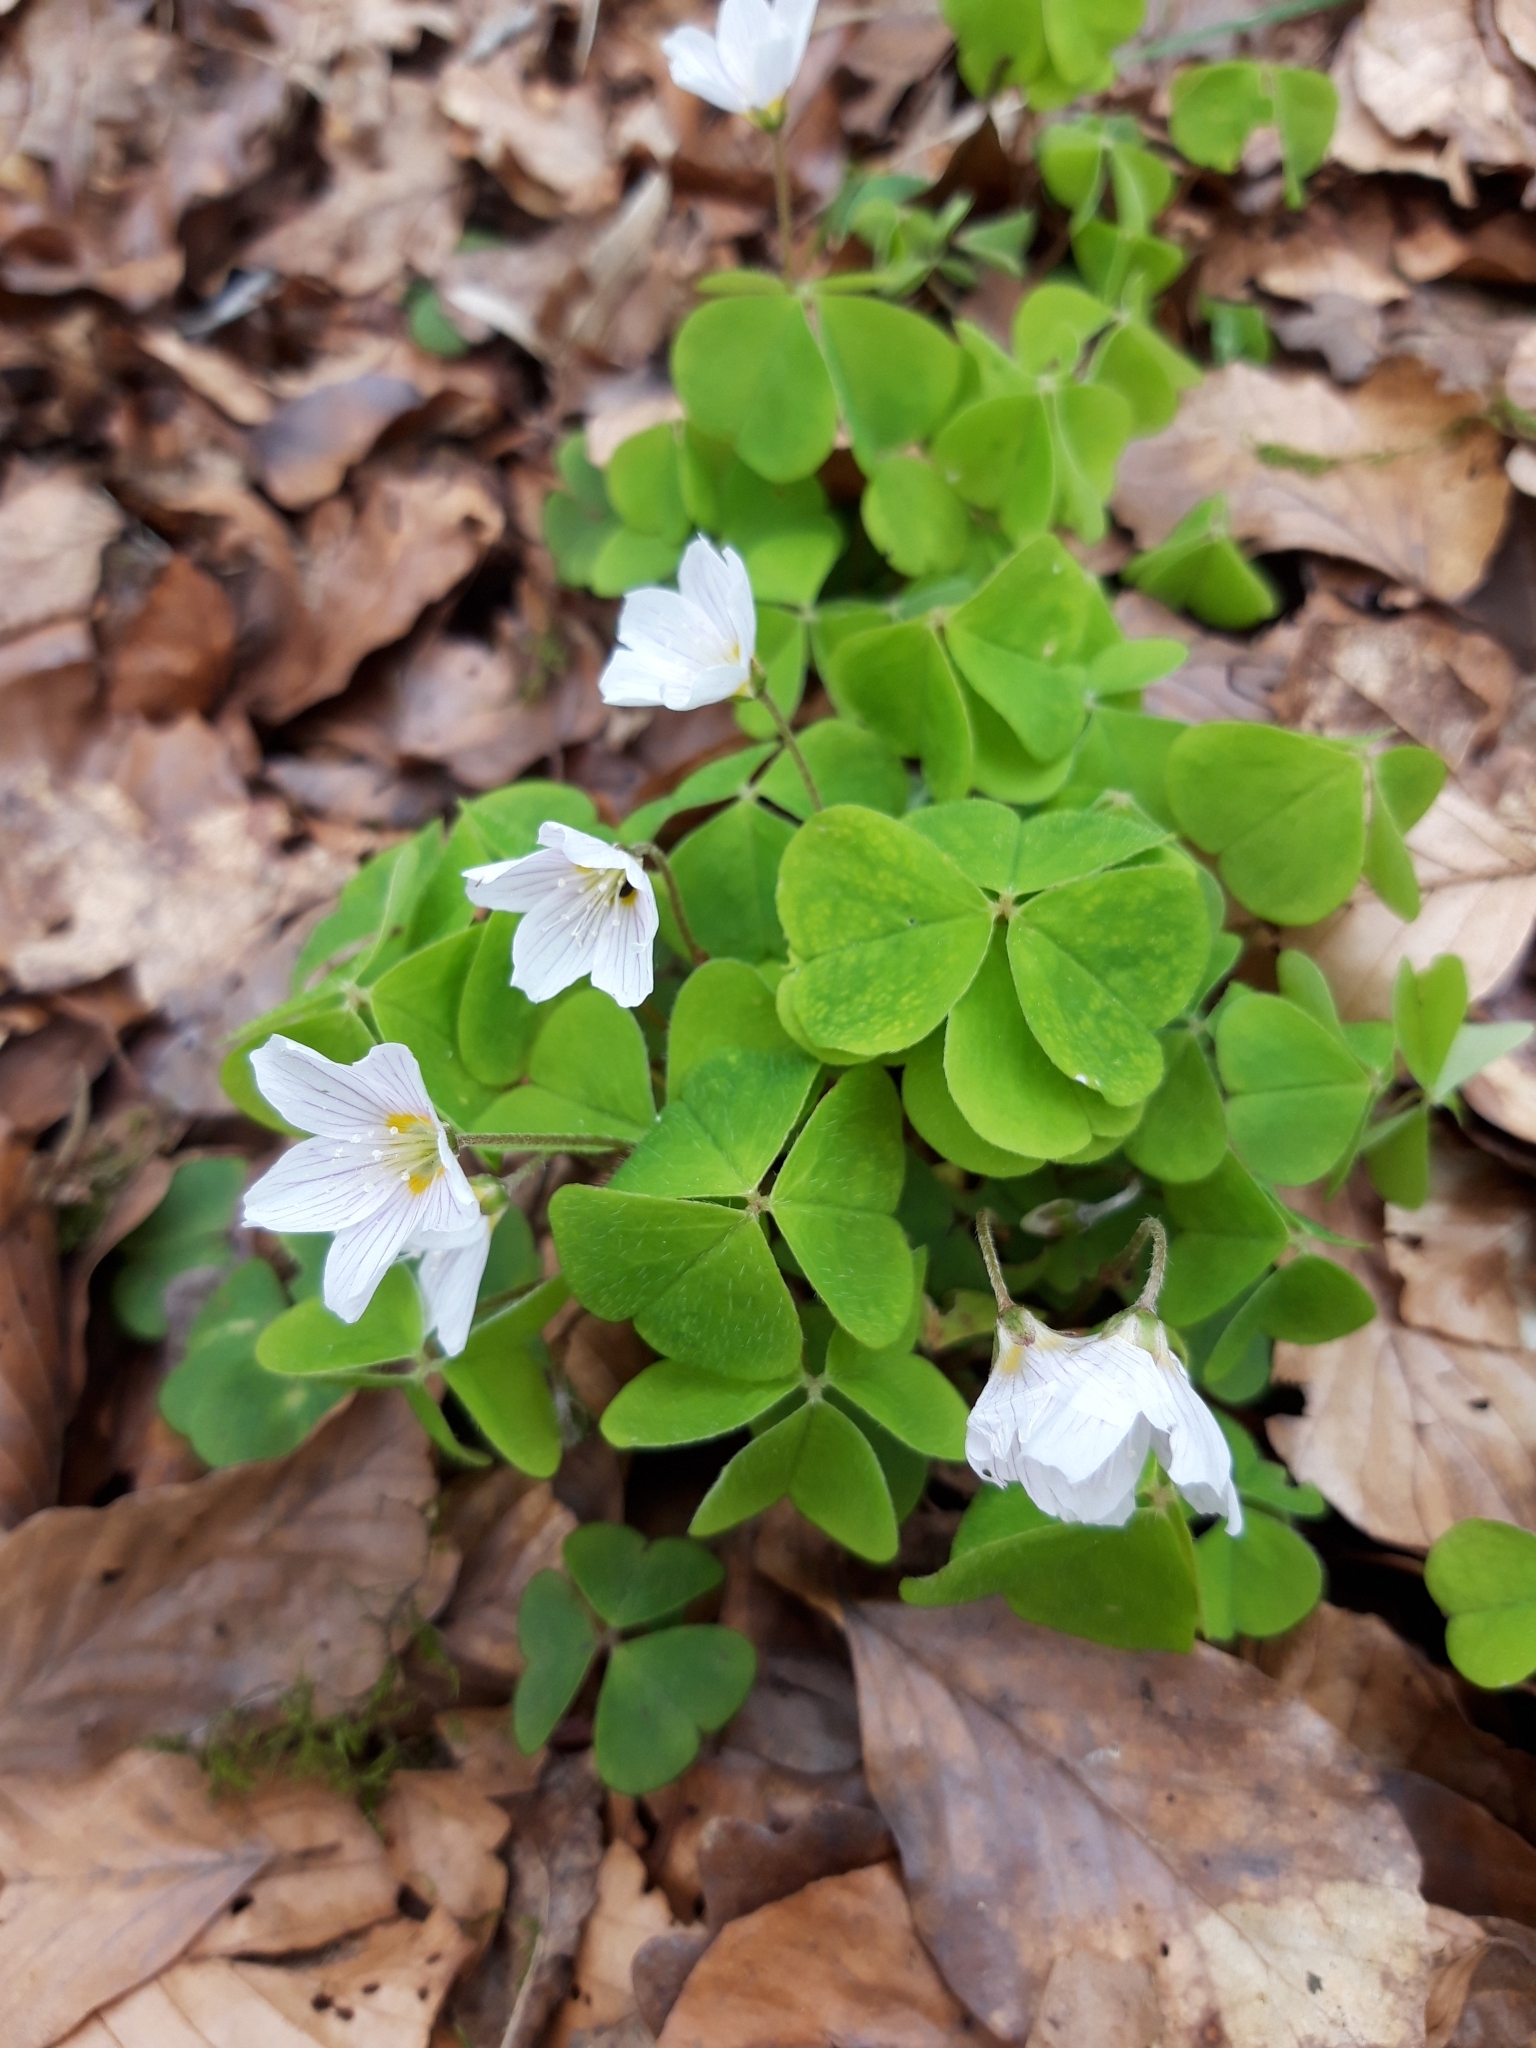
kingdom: Plantae
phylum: Tracheophyta
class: Magnoliopsida
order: Oxalidales
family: Oxalidaceae
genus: Oxalis
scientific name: Oxalis acetosella
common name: Wood-sorrel
